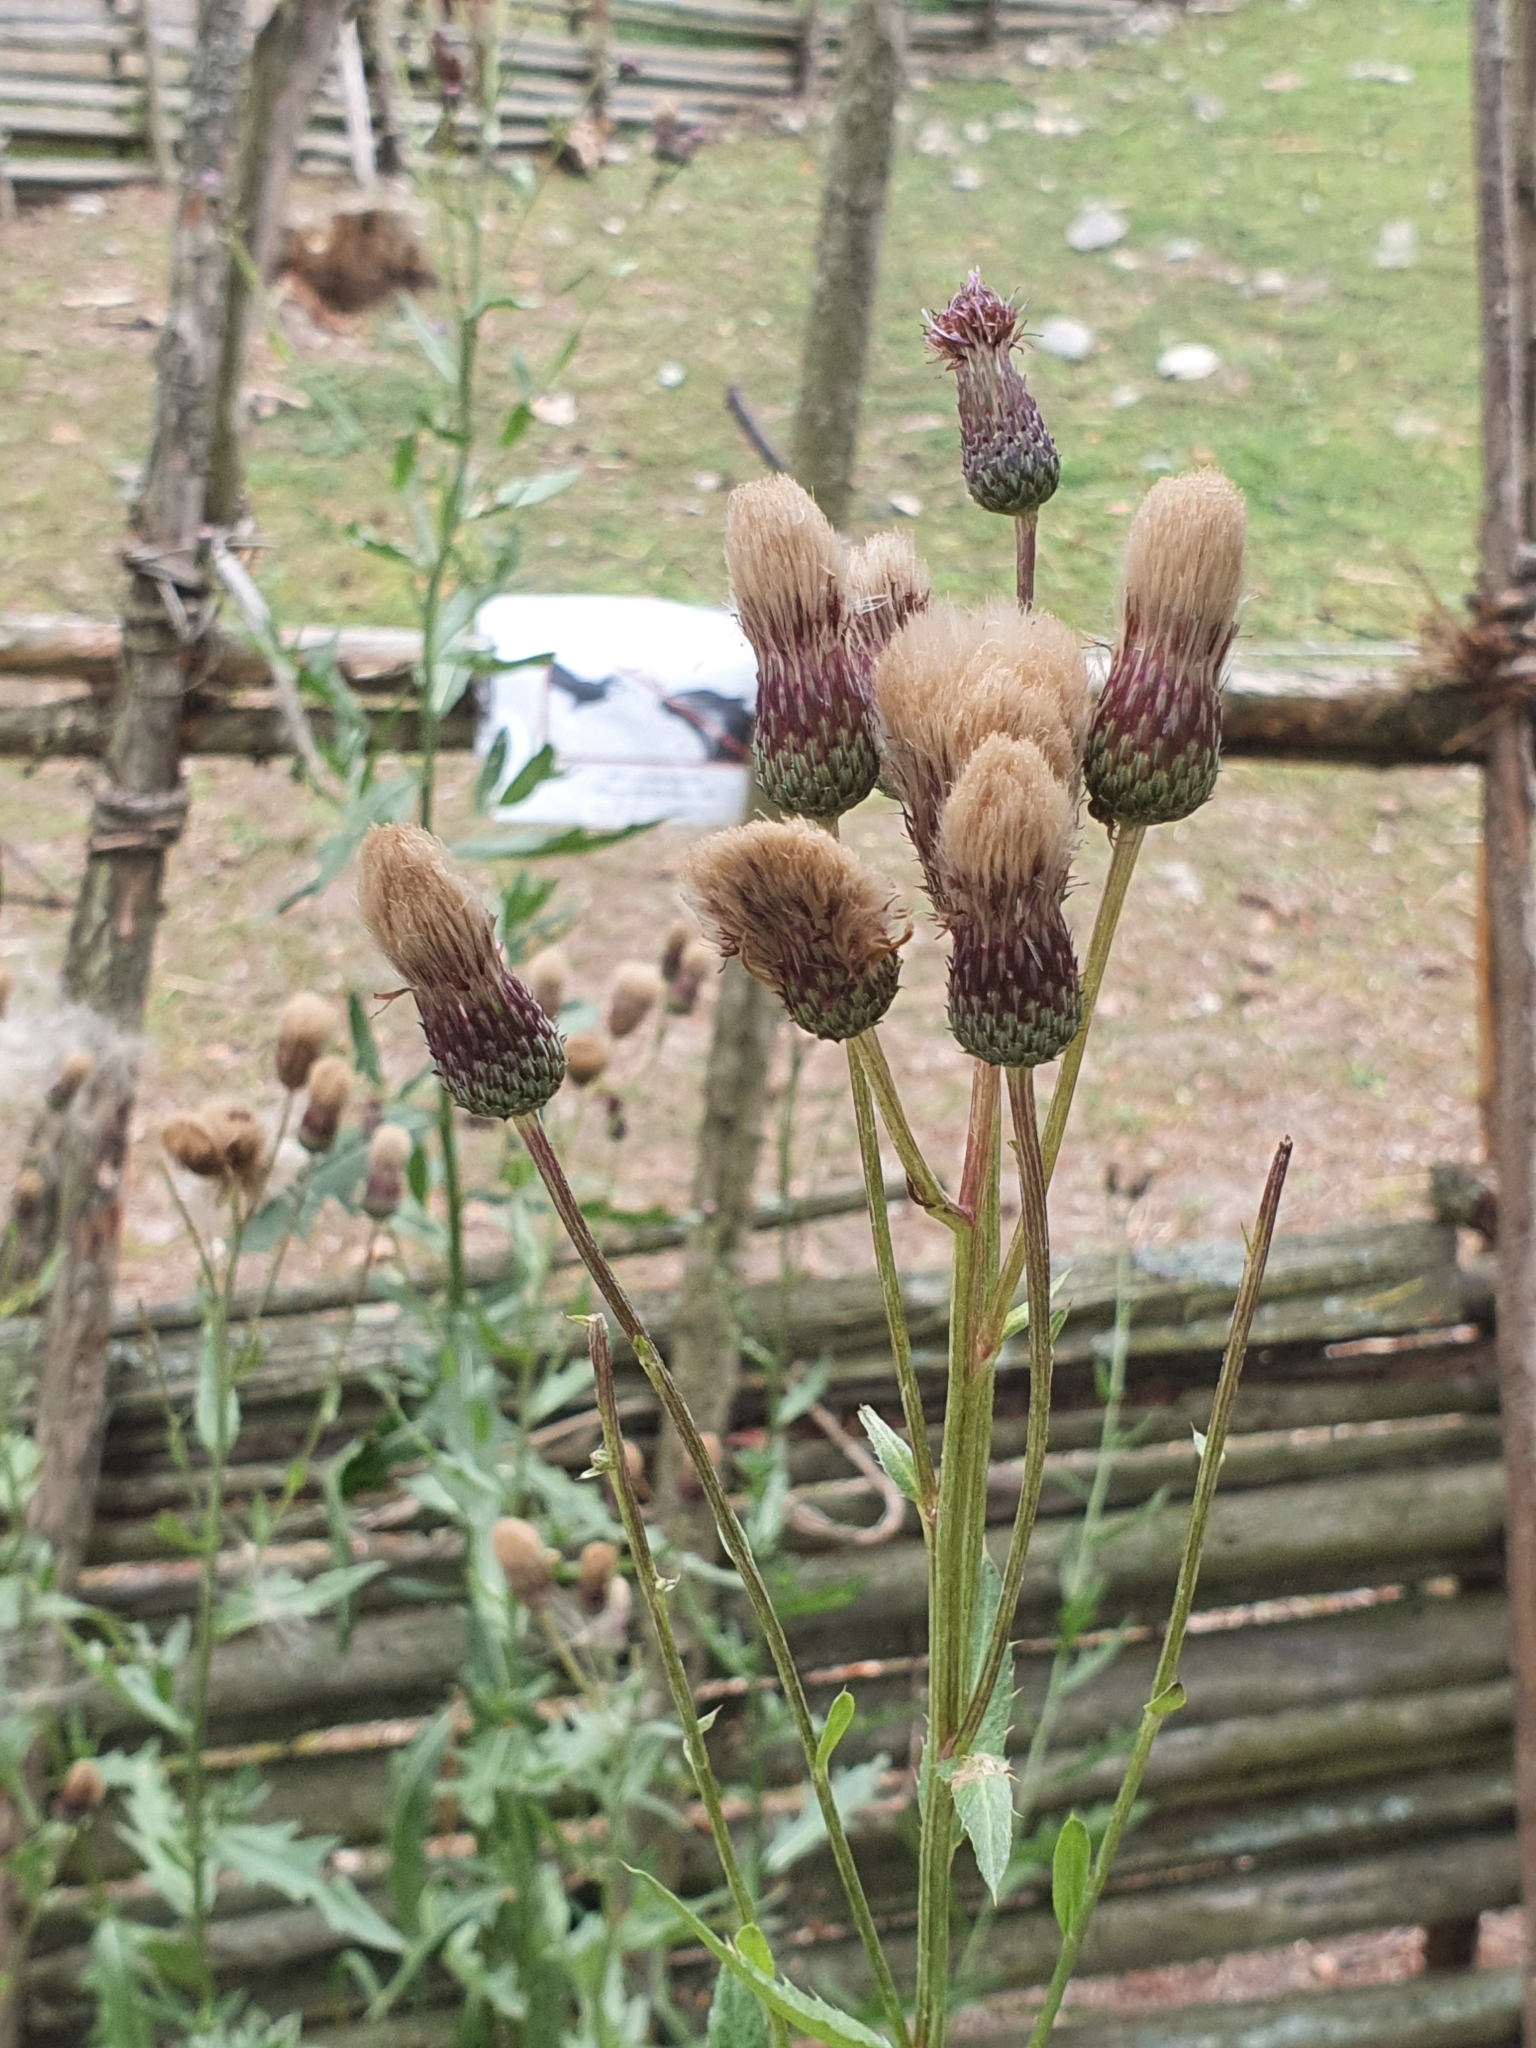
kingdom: Plantae
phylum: Tracheophyta
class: Magnoliopsida
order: Asterales
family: Asteraceae
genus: Cirsium
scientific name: Cirsium arvense
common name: Creeping thistle
